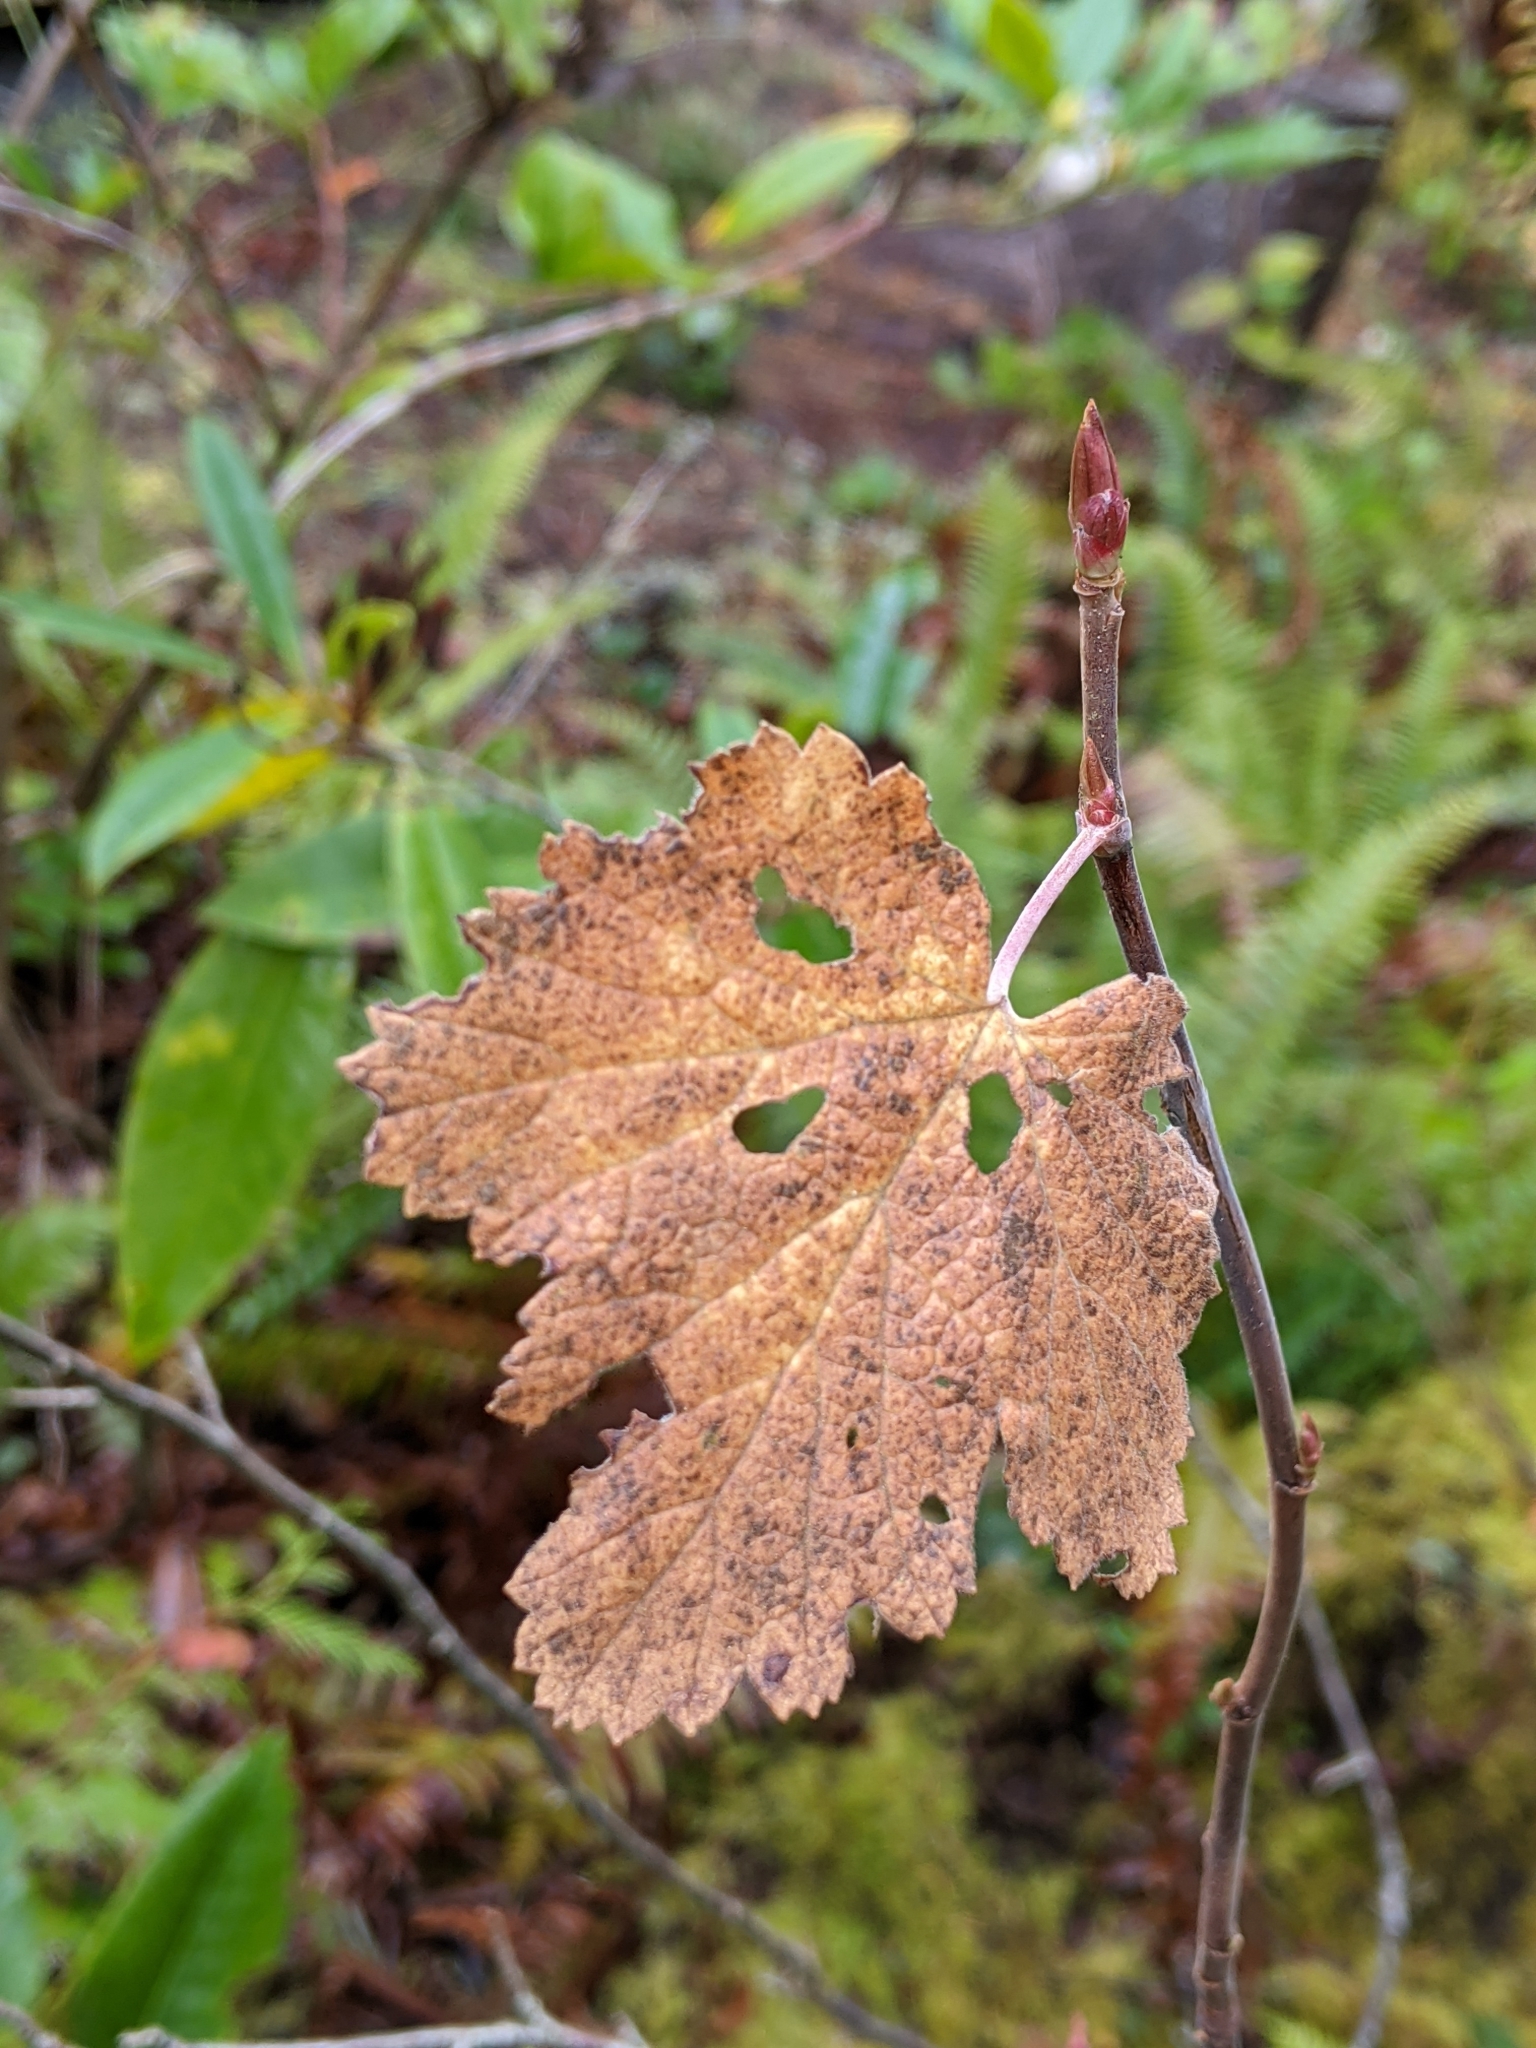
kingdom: Plantae
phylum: Tracheophyta
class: Magnoliopsida
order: Saxifragales
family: Grossulariaceae
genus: Ribes
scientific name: Ribes sanguineum
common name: Flowering currant
